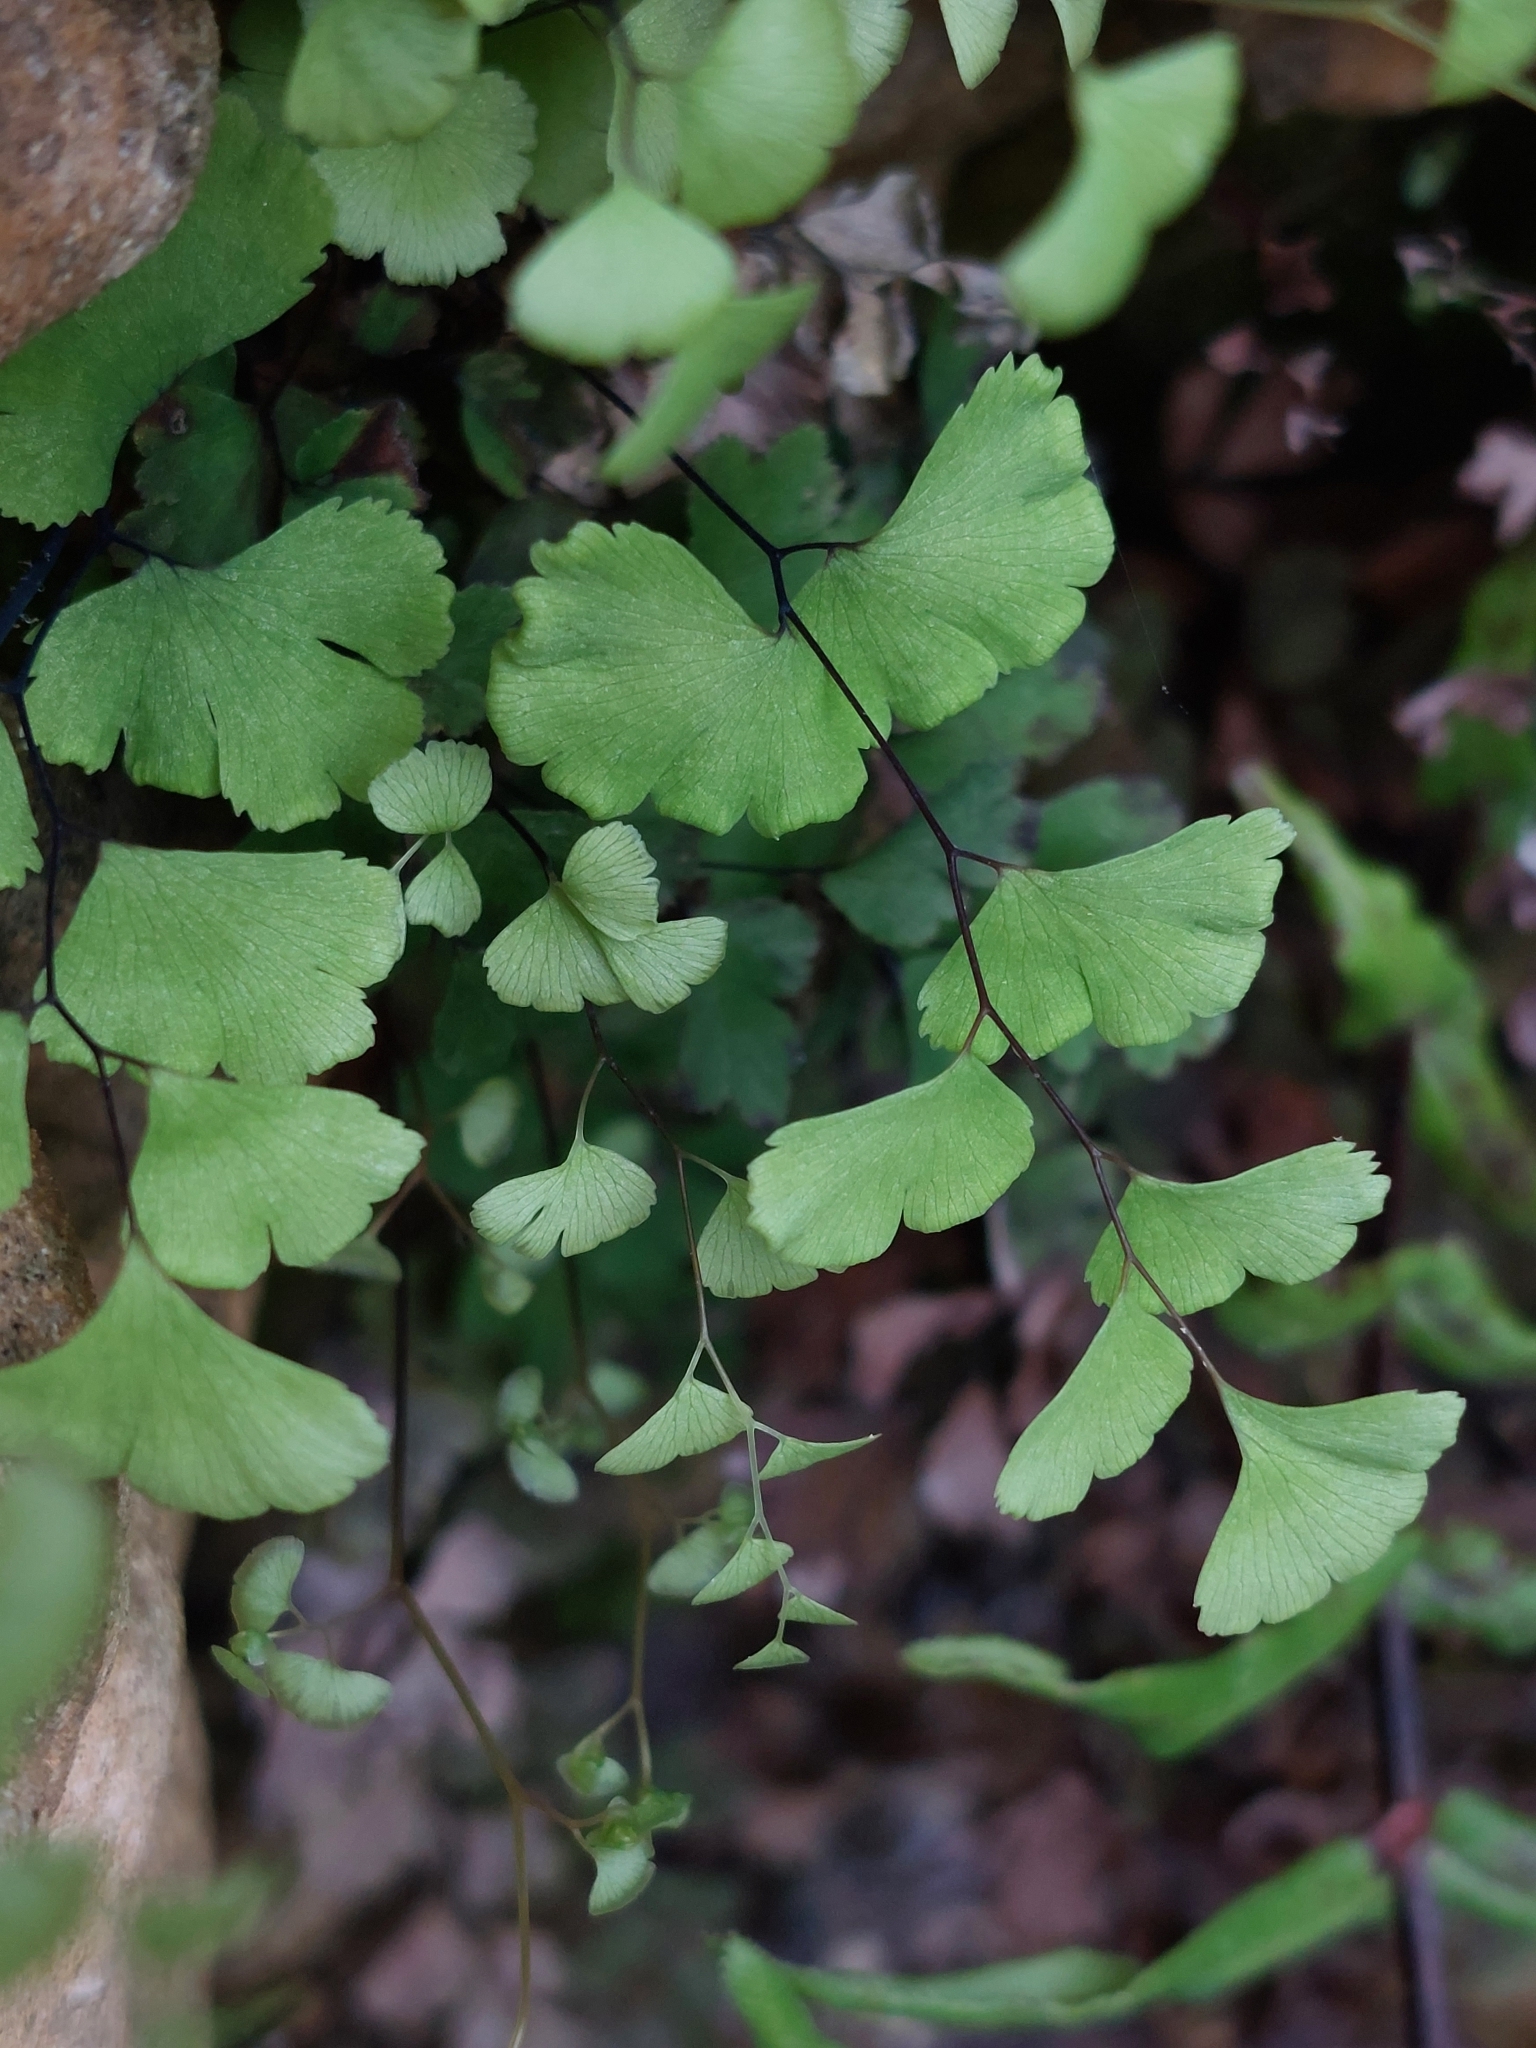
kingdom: Plantae
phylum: Tracheophyta
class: Polypodiopsida
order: Polypodiales
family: Pteridaceae
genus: Adiantum
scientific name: Adiantum capillus-veneris
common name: Maidenhair fern
